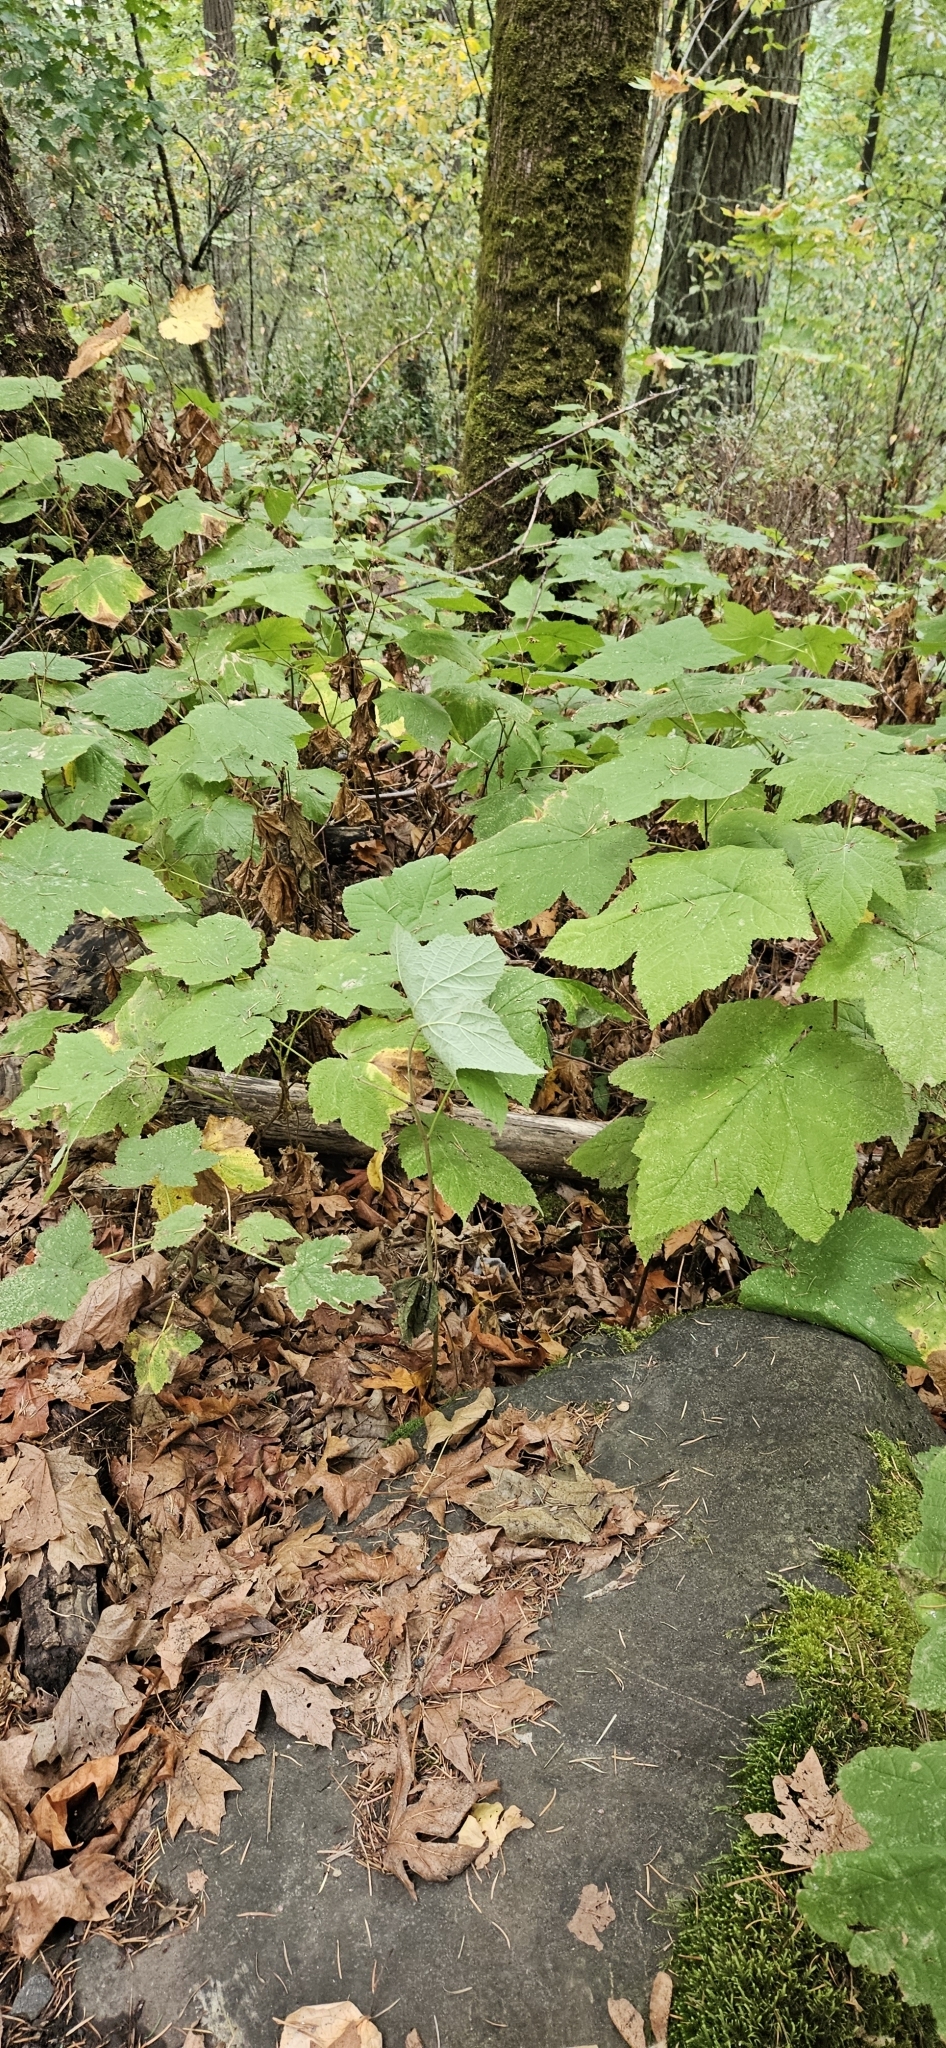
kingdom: Plantae
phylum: Tracheophyta
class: Magnoliopsida
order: Rosales
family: Rosaceae
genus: Rubus
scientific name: Rubus parviflorus
